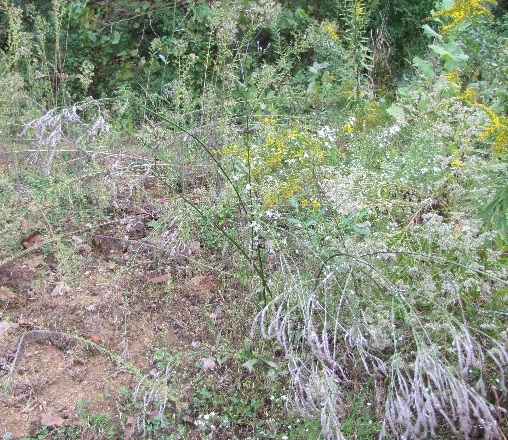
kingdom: Plantae
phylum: Tracheophyta
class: Magnoliopsida
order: Lamiales
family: Verbenaceae
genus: Verbena
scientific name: Verbena brasiliensis
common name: Brazilian vervain
